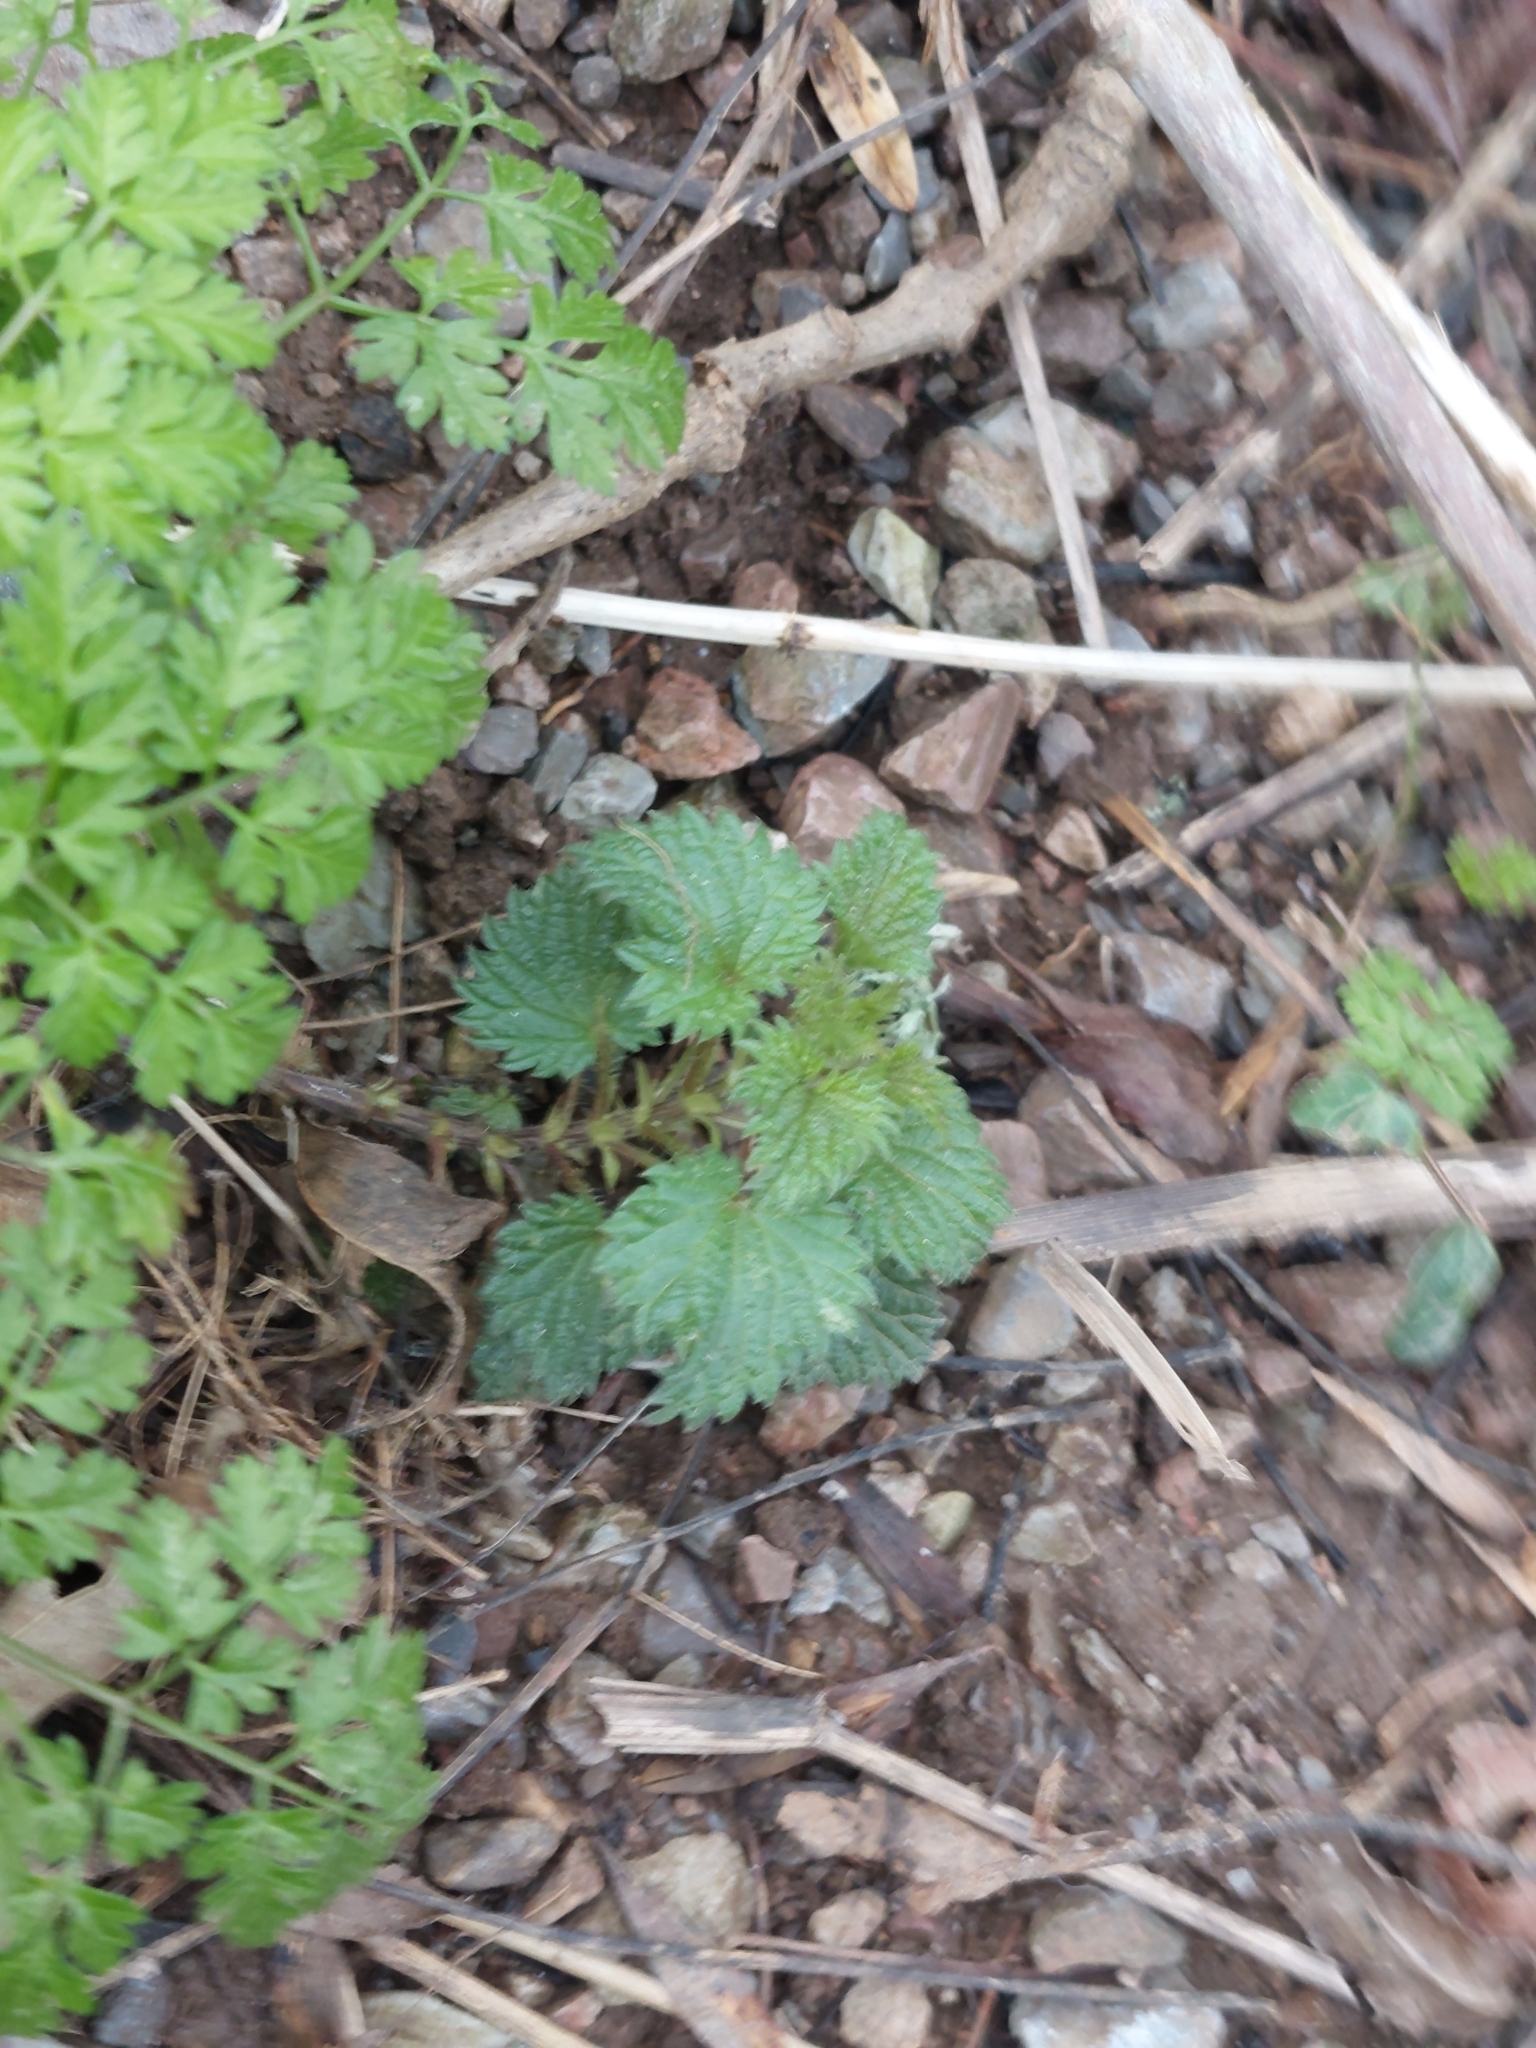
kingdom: Plantae
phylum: Tracheophyta
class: Magnoliopsida
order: Rosales
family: Urticaceae
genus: Urtica
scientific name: Urtica dioica
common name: Common nettle
